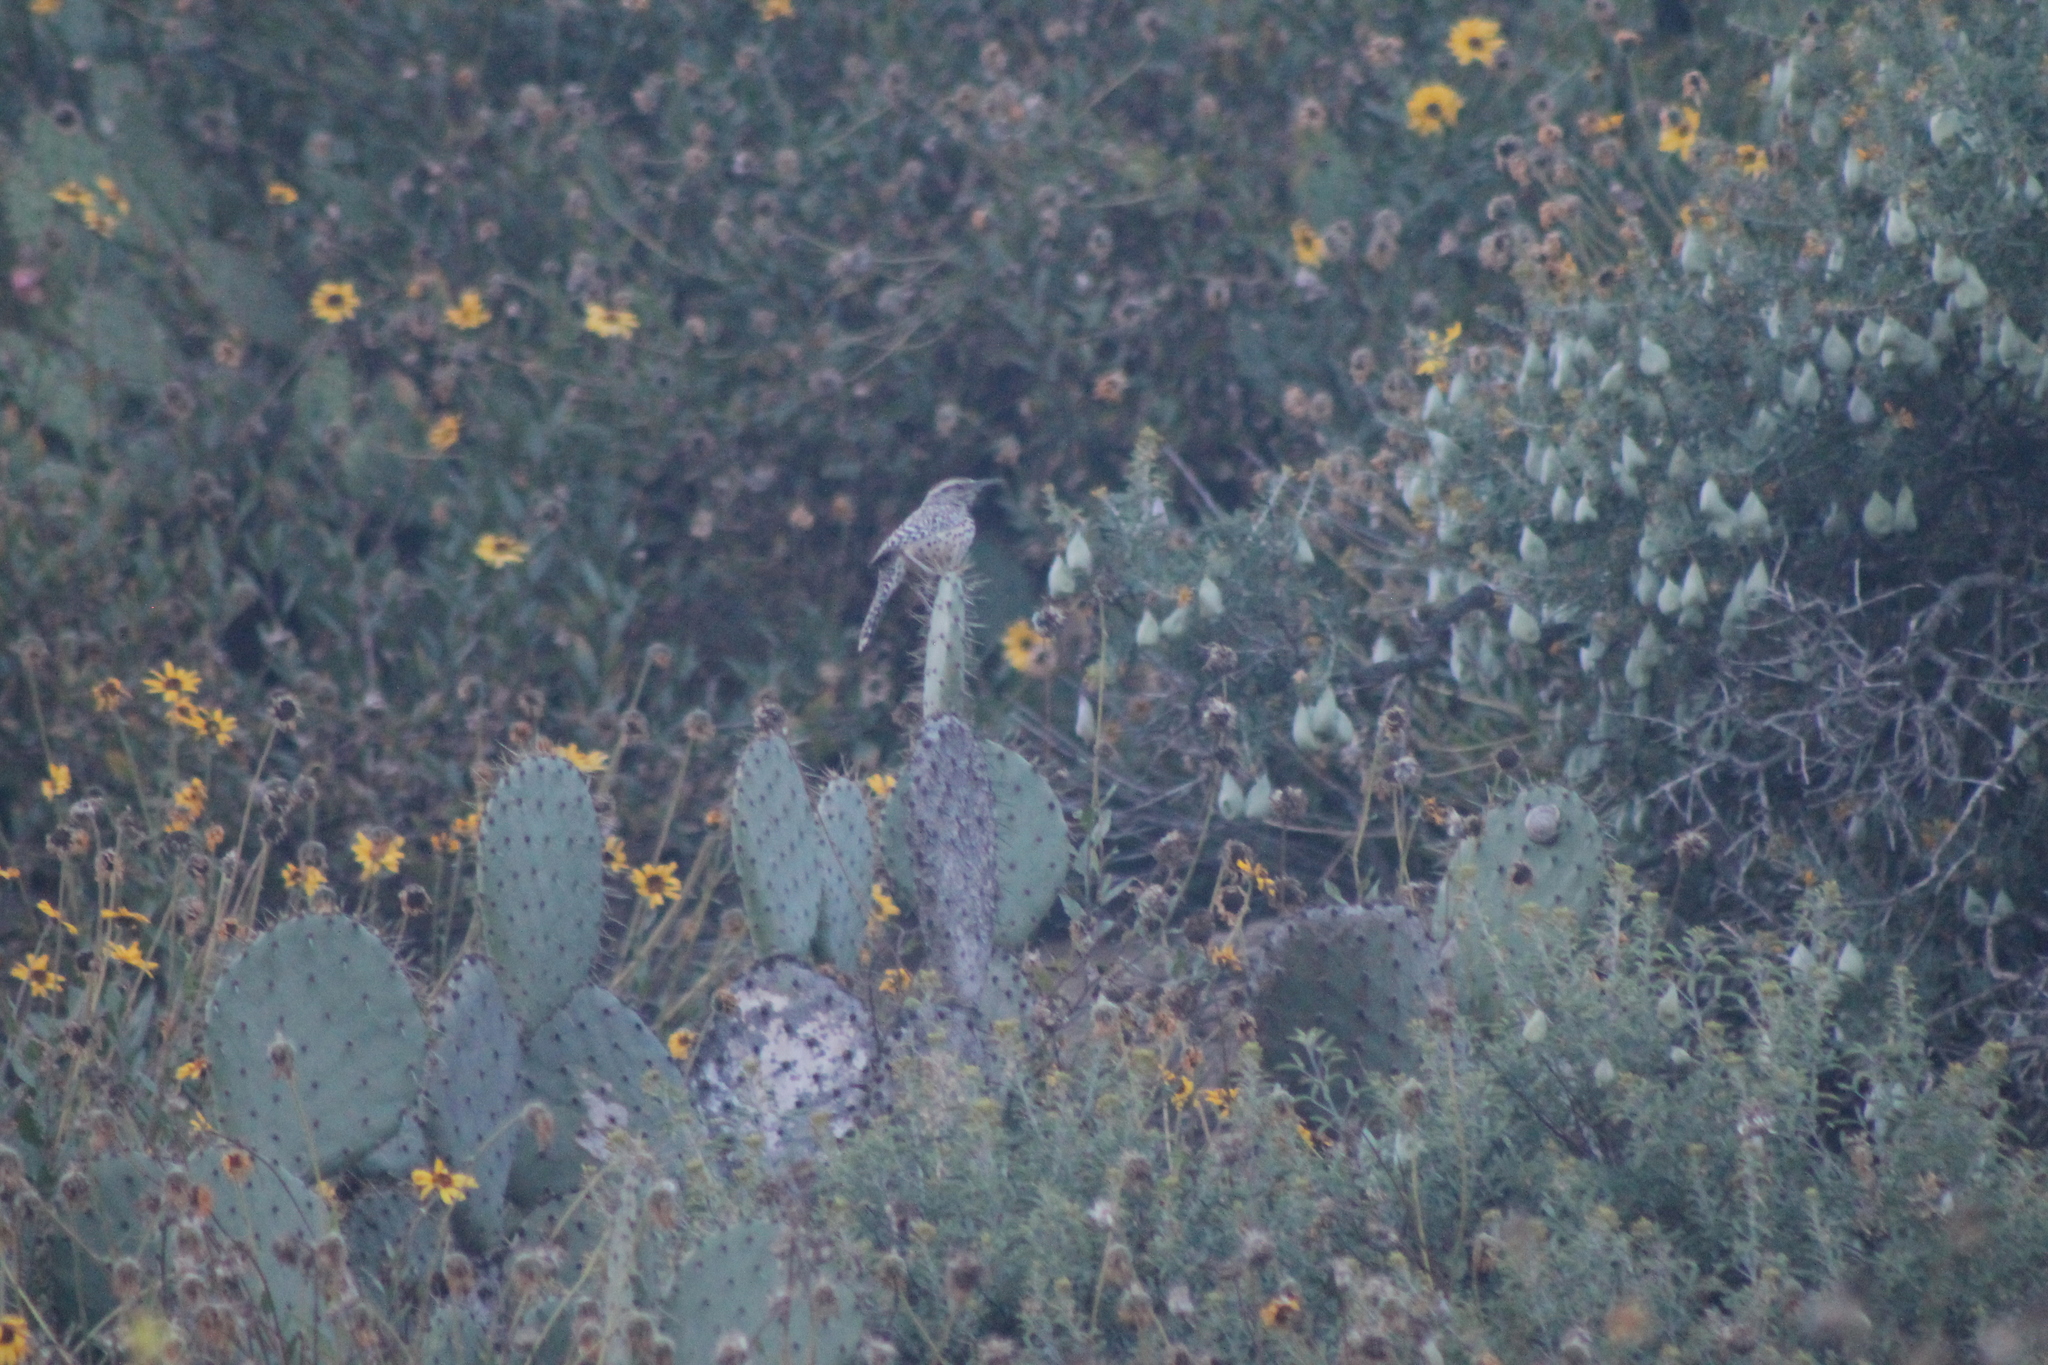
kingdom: Animalia
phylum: Chordata
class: Aves
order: Passeriformes
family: Troglodytidae
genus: Campylorhynchus
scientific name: Campylorhynchus brunneicapillus
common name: Cactus wren
